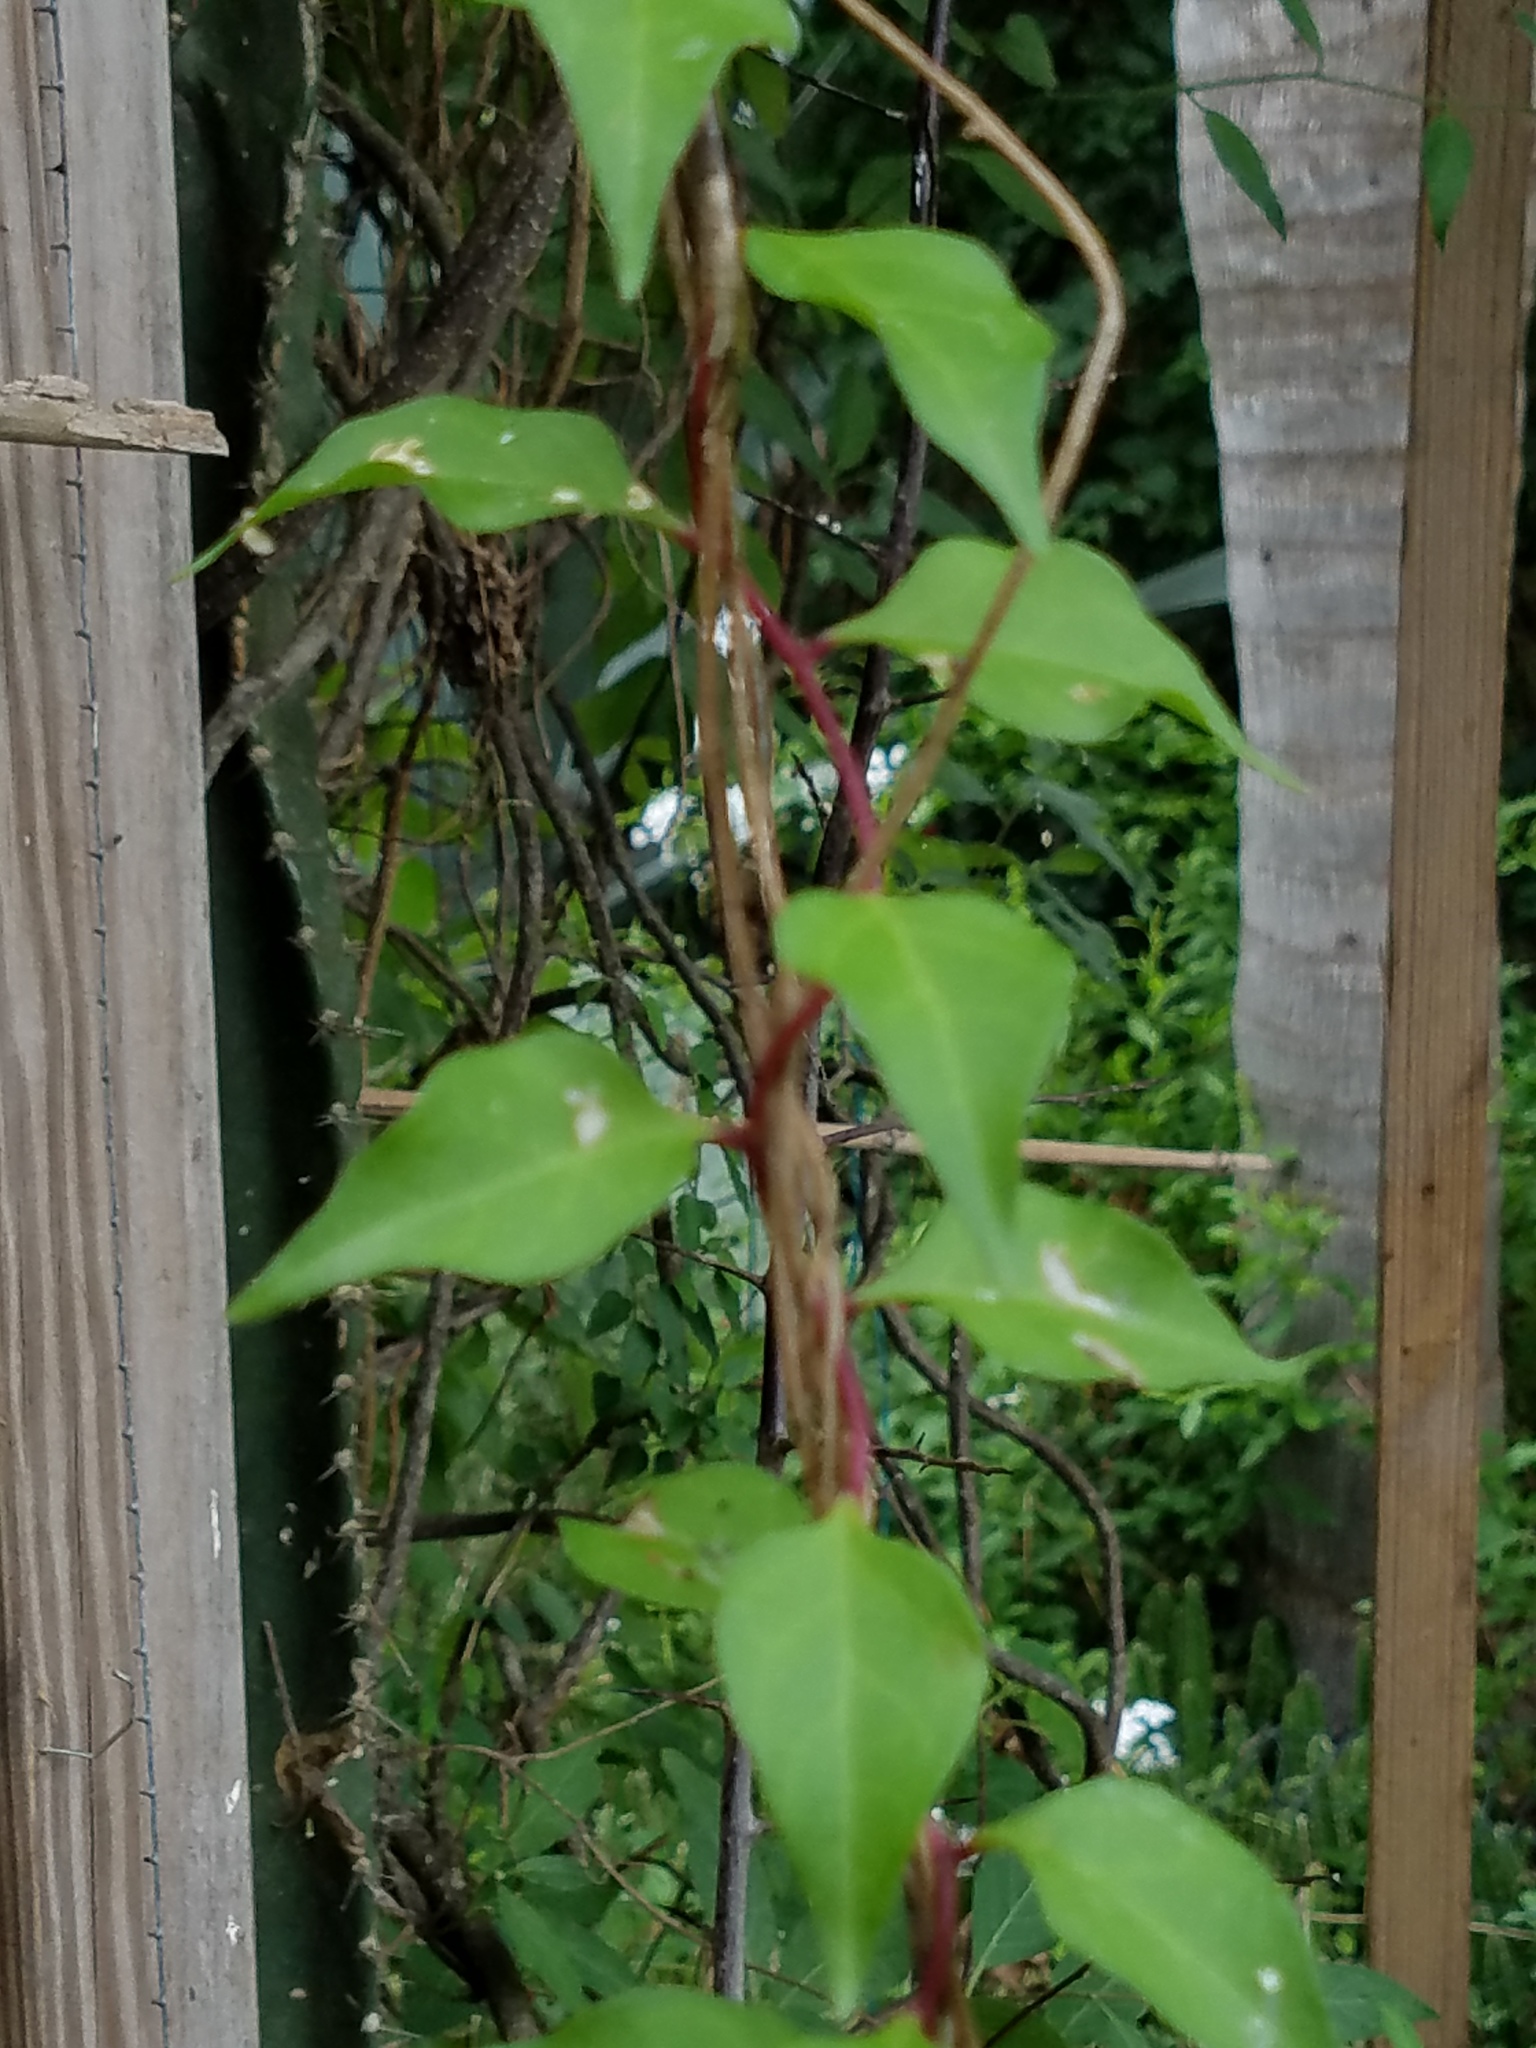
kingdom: Plantae
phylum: Tracheophyta
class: Magnoliopsida
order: Caryophyllales
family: Basellaceae
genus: Anredera
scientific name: Anredera vesicaria
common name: Sacasile
